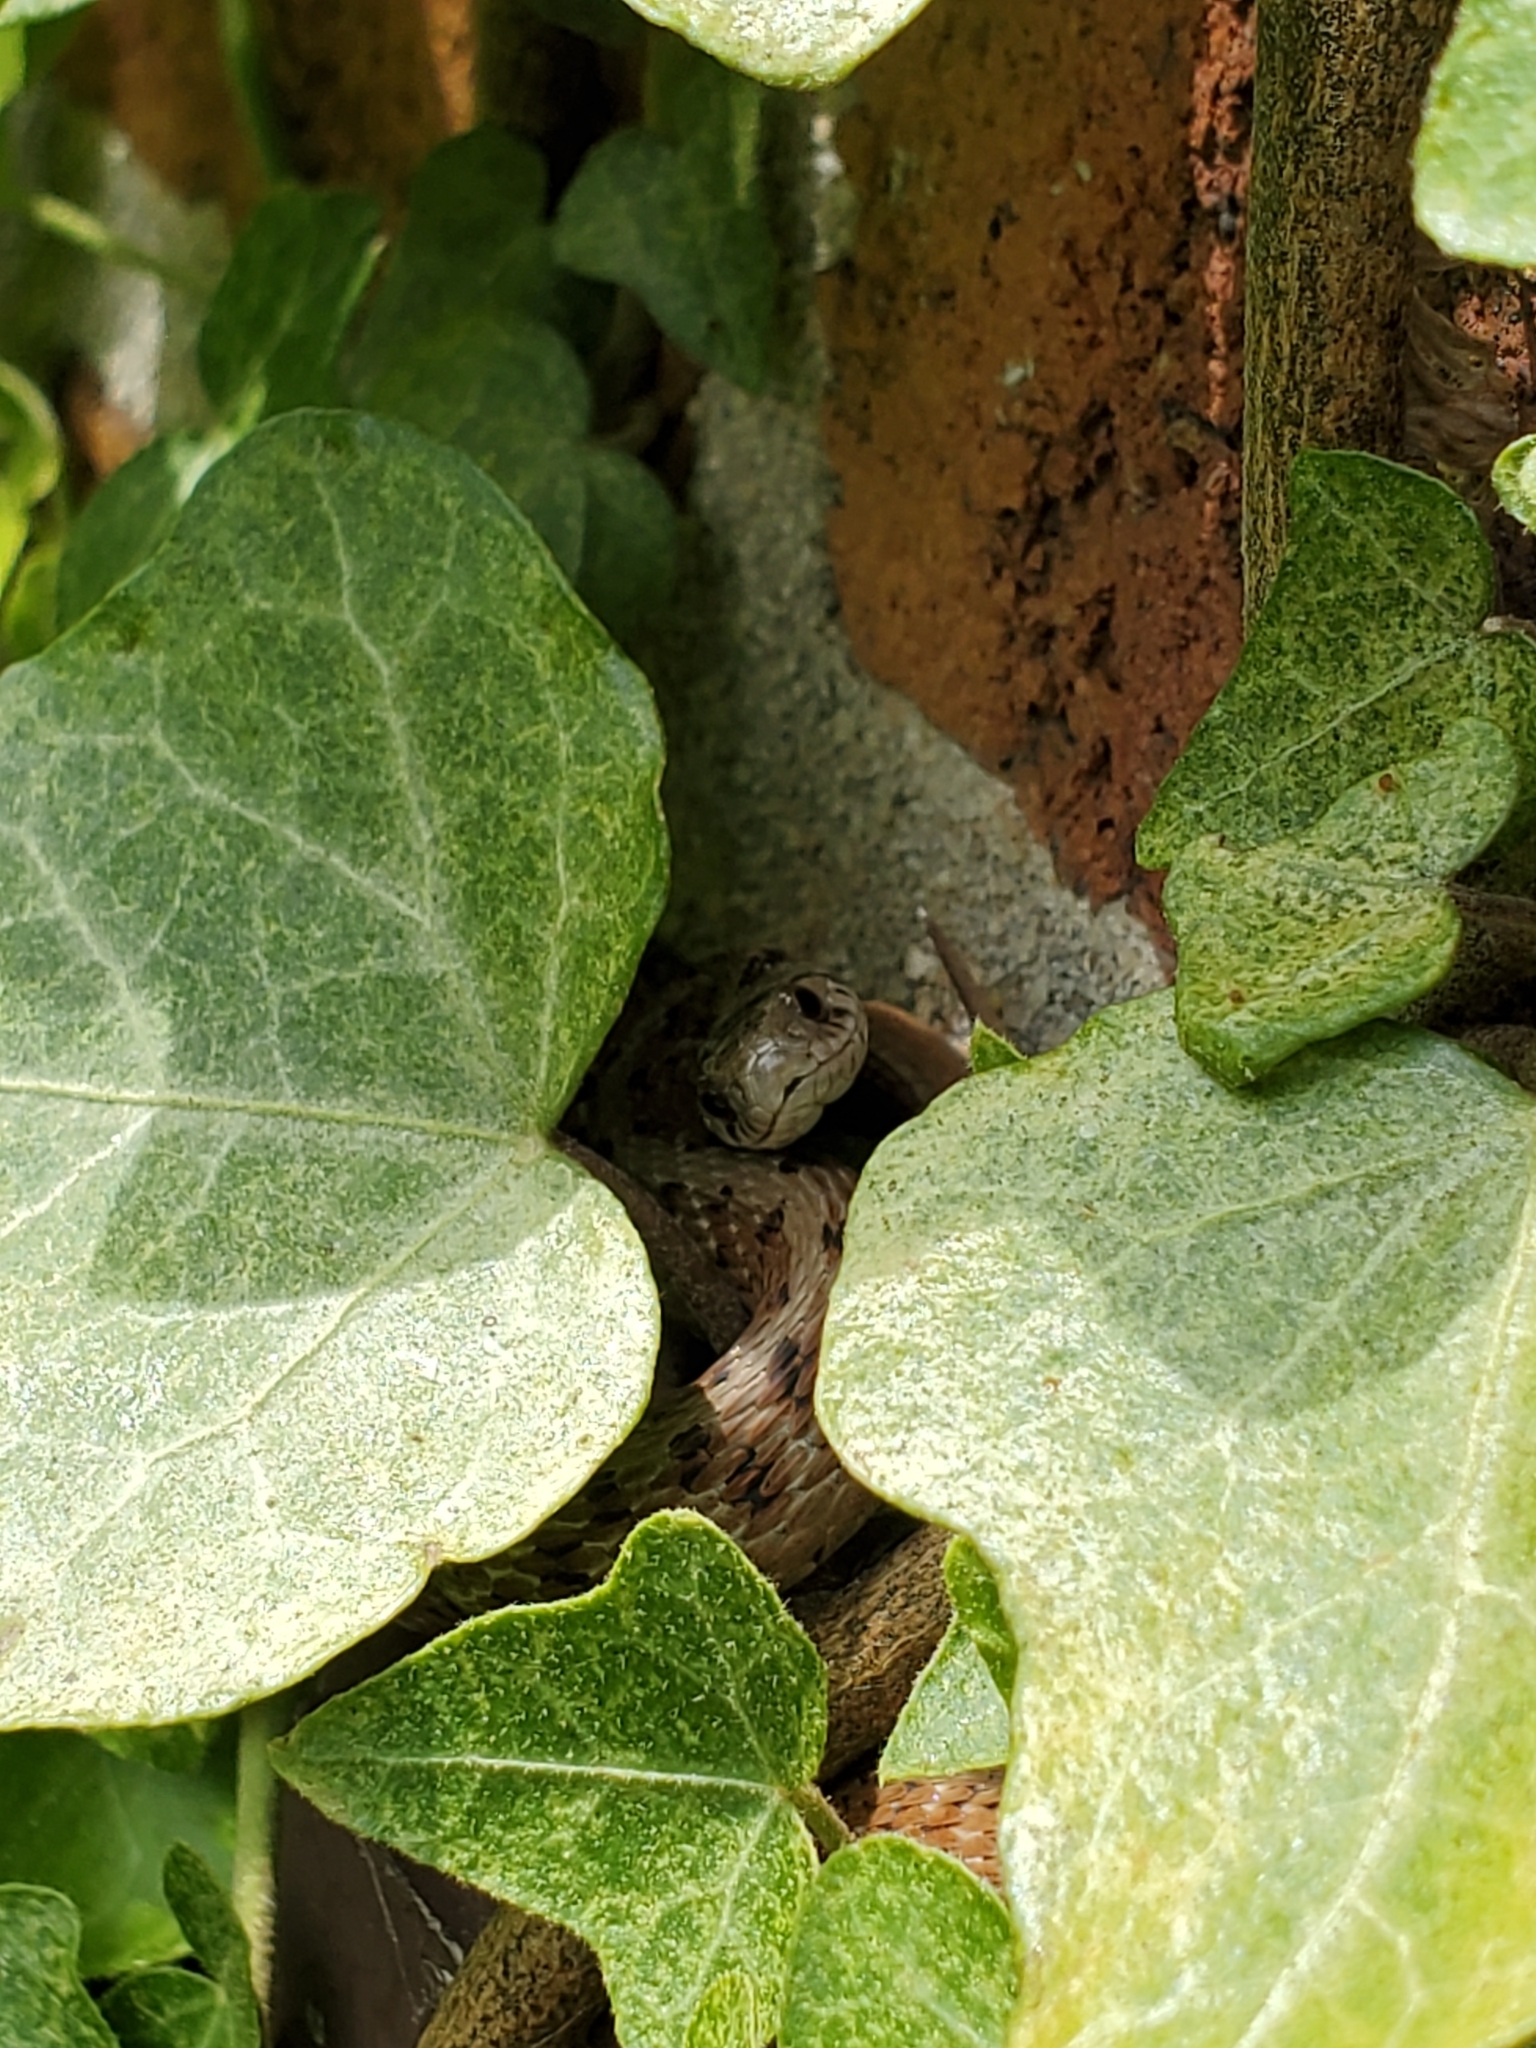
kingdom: Animalia
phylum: Chordata
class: Squamata
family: Colubridae
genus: Storeria
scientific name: Storeria dekayi
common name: (dekay’s) brown snake
